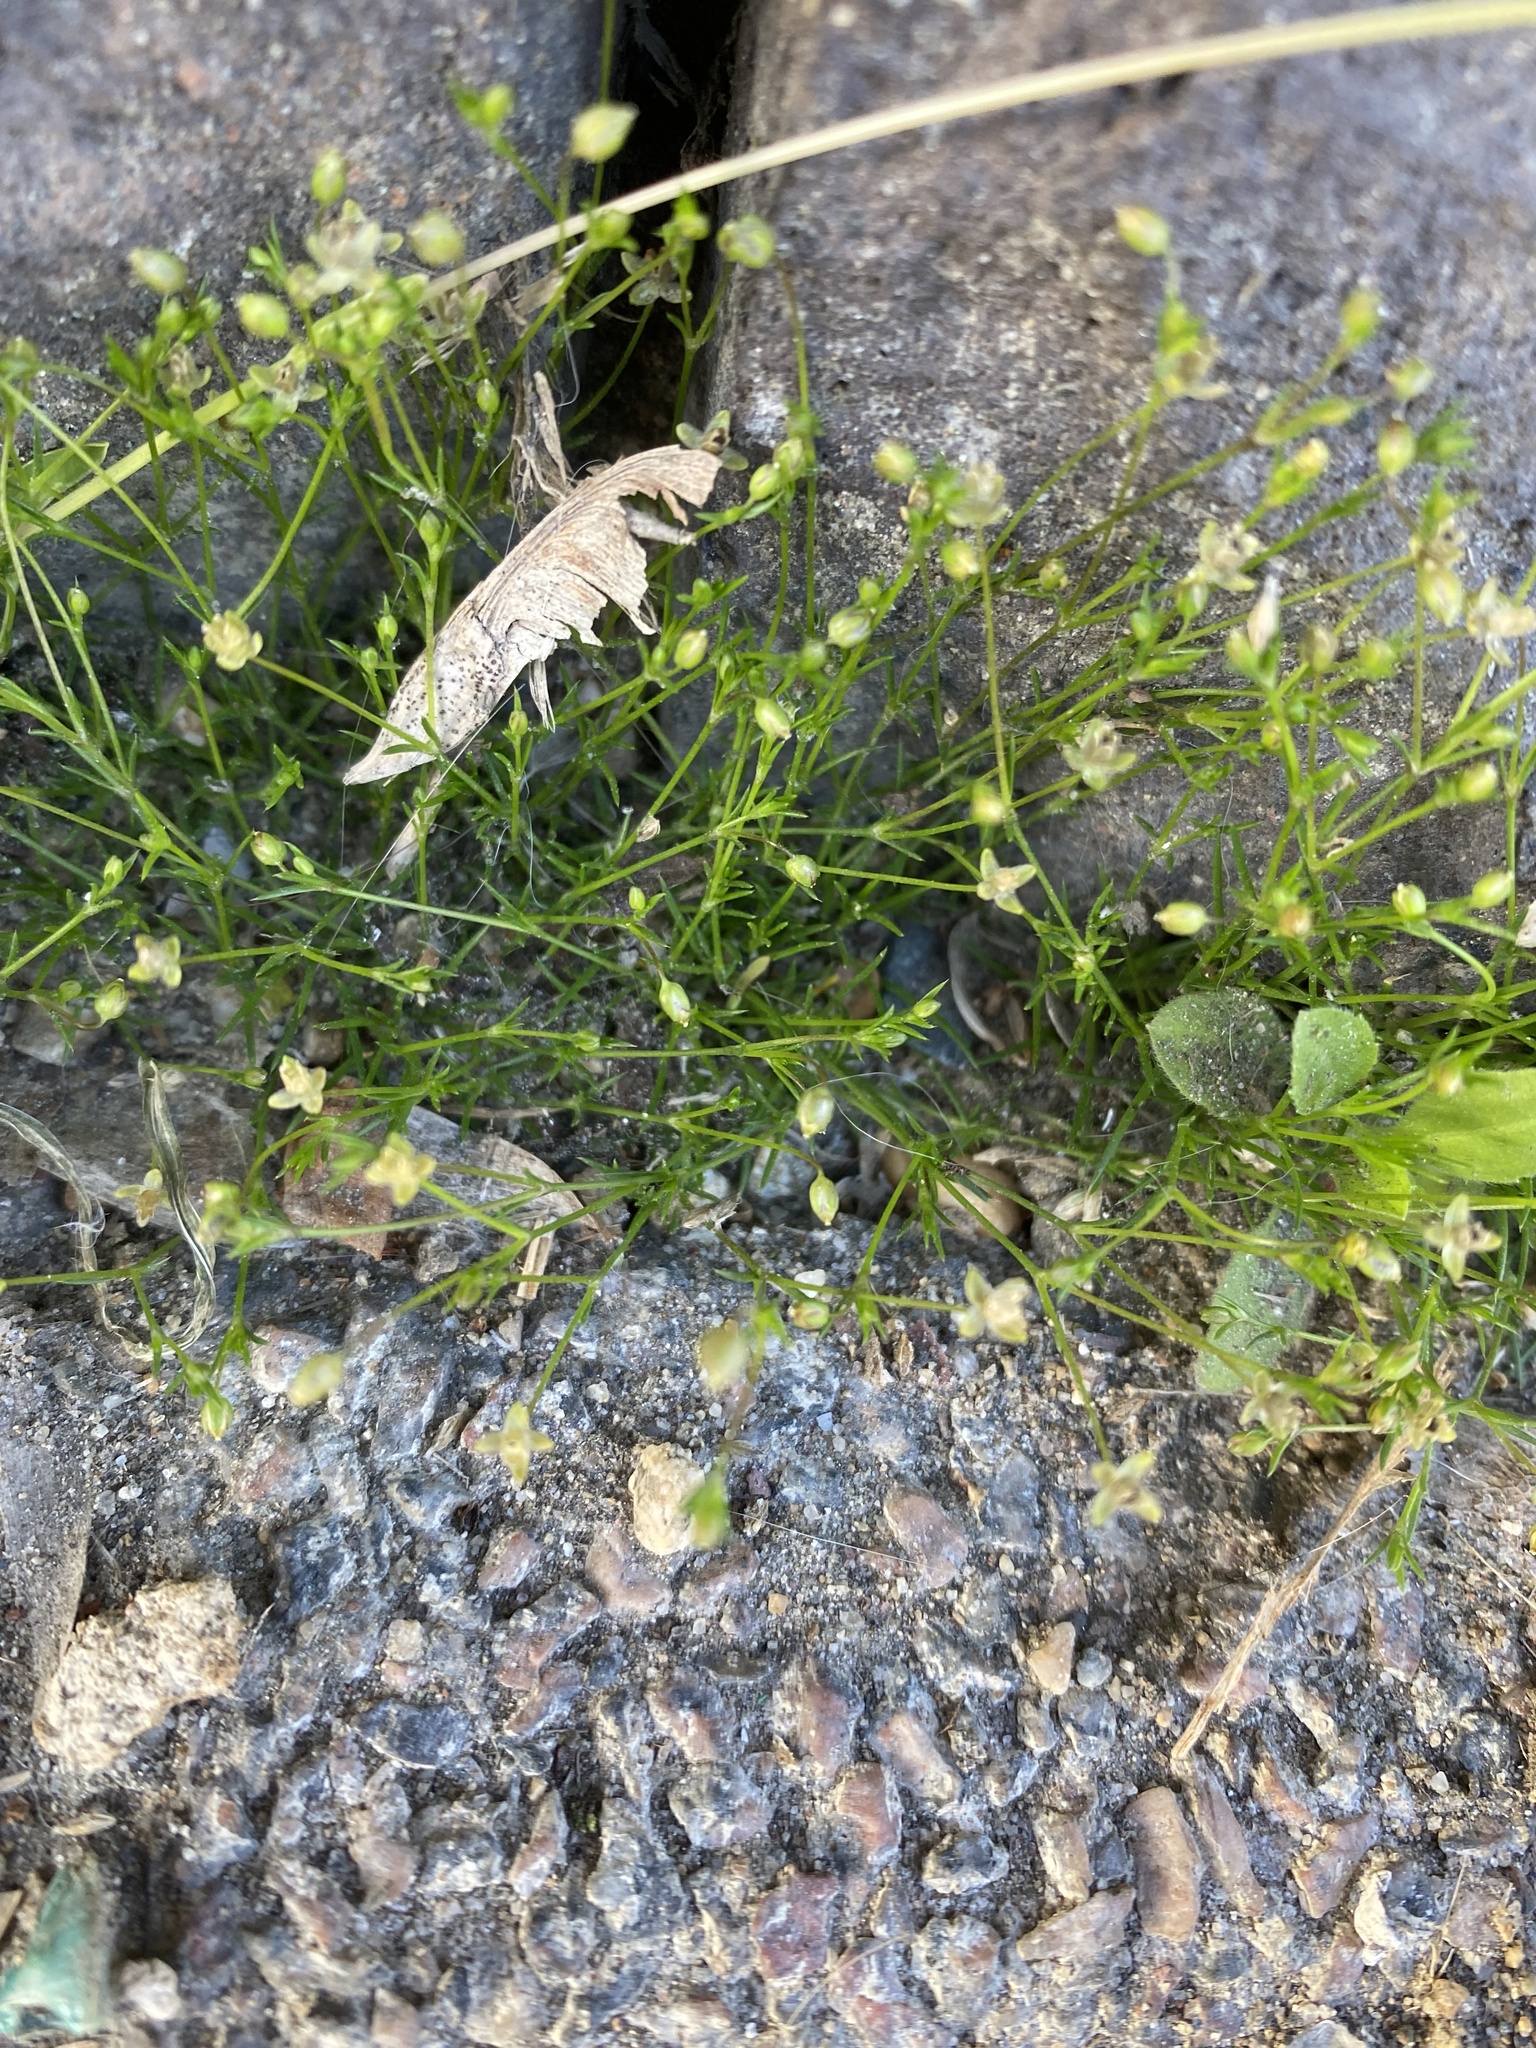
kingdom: Plantae
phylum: Tracheophyta
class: Magnoliopsida
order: Caryophyllales
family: Caryophyllaceae
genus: Sagina
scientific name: Sagina procumbens
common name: Procumbent pearlwort
